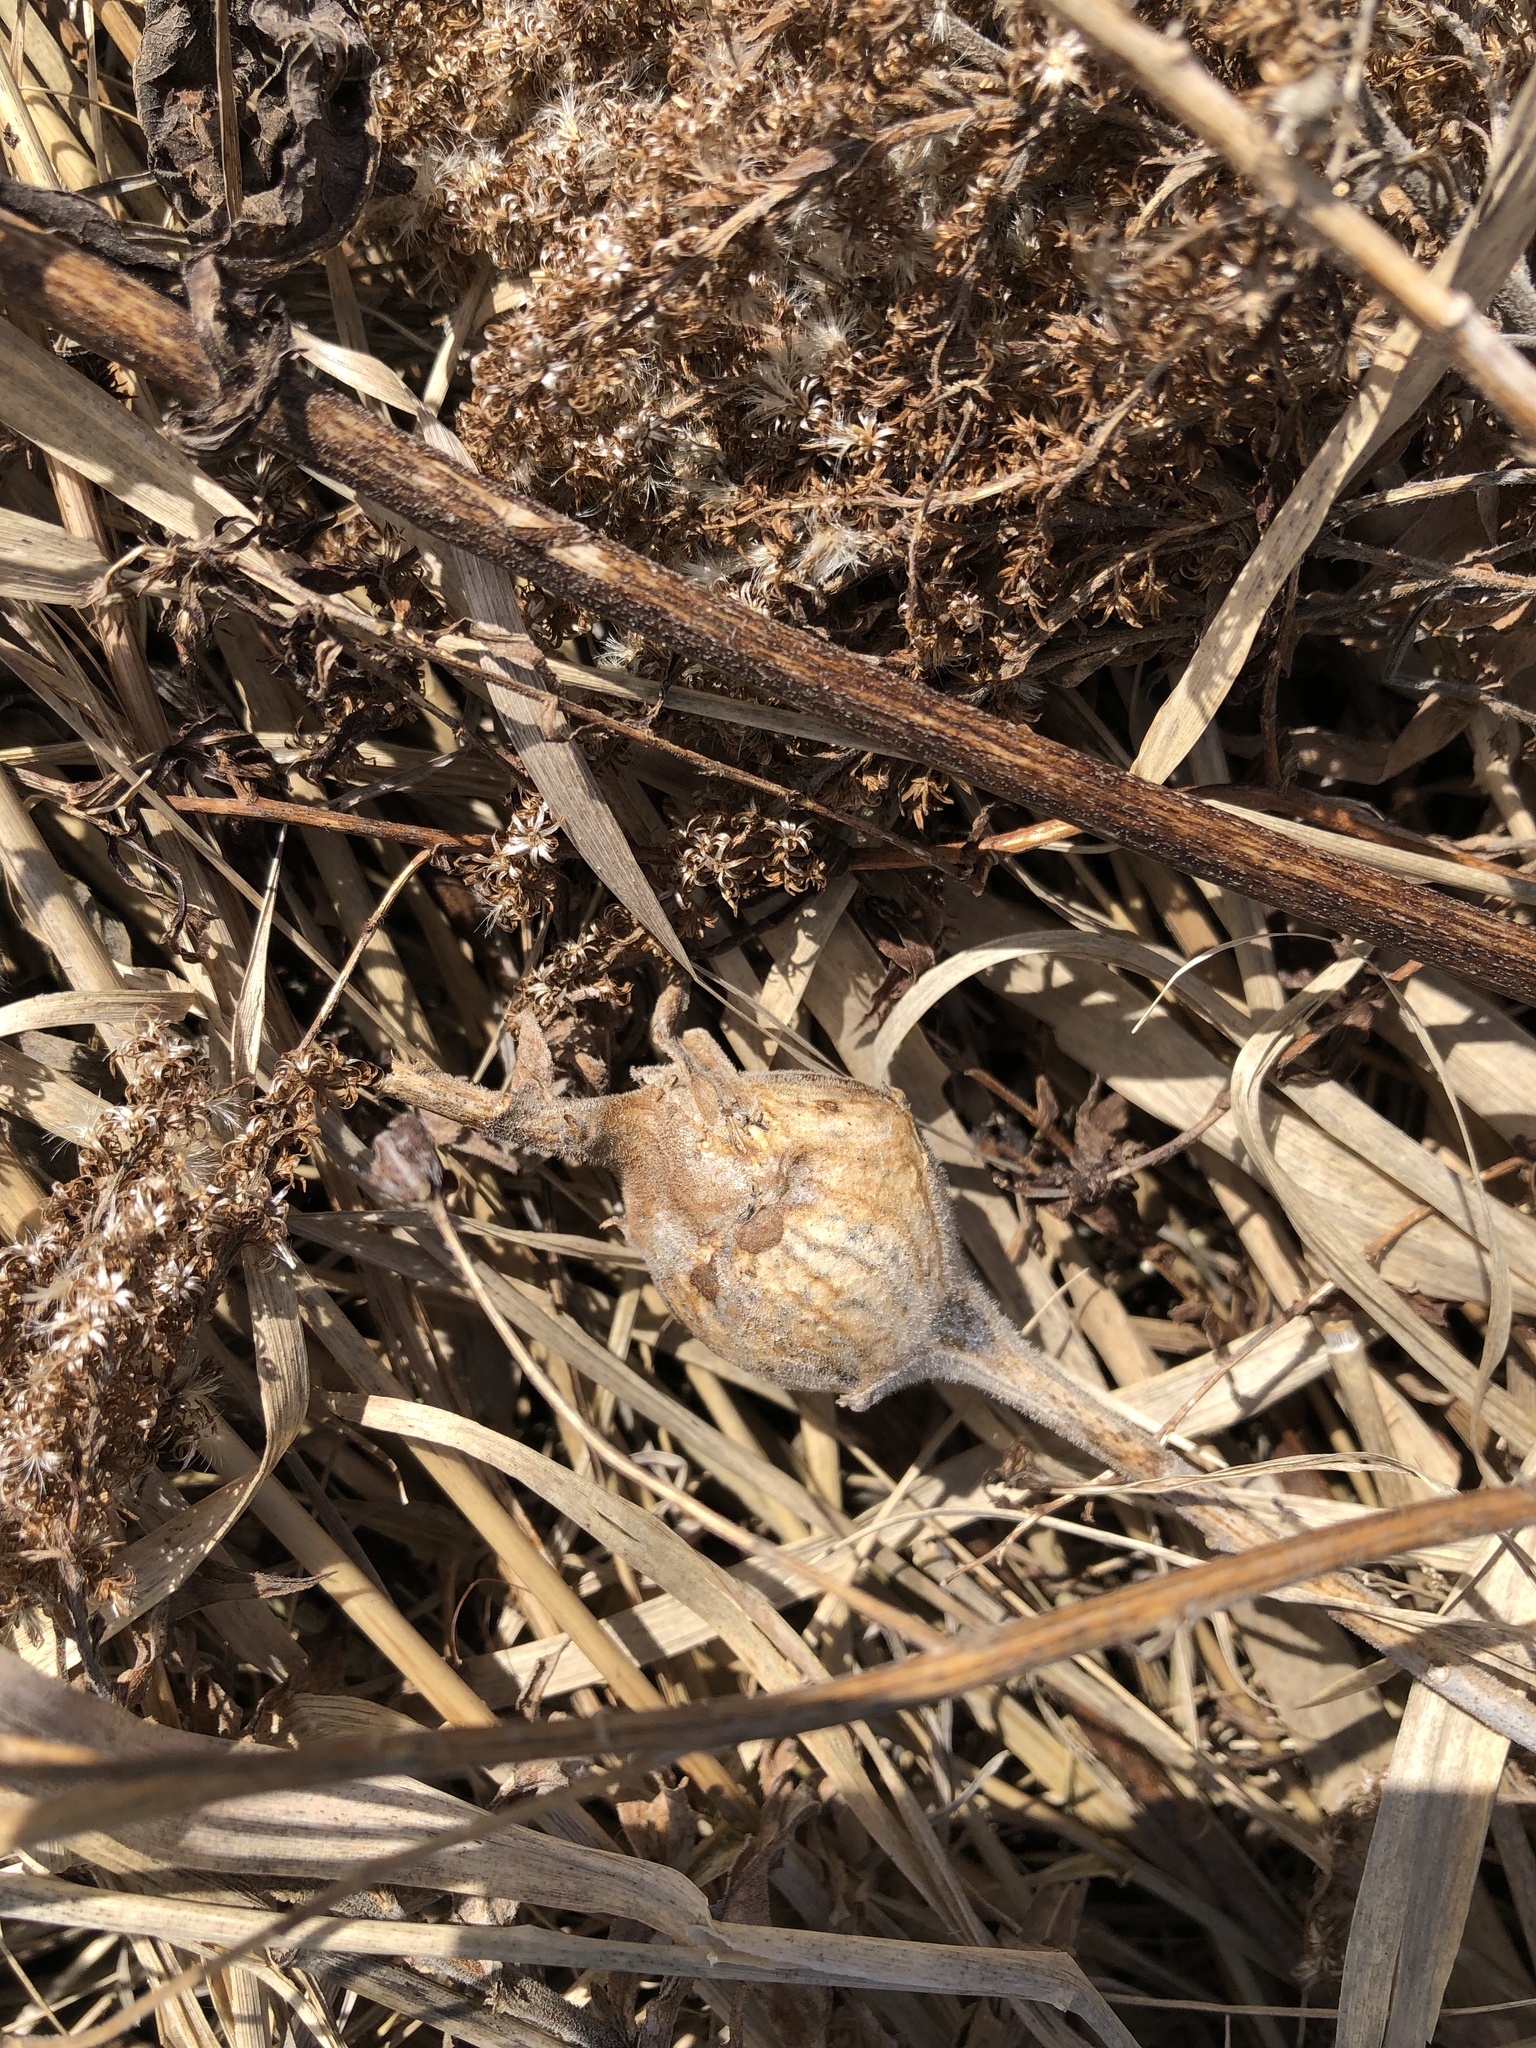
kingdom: Animalia
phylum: Arthropoda
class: Insecta
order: Diptera
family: Tephritidae
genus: Eurosta
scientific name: Eurosta solidaginis
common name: Goldenrod gall fly
